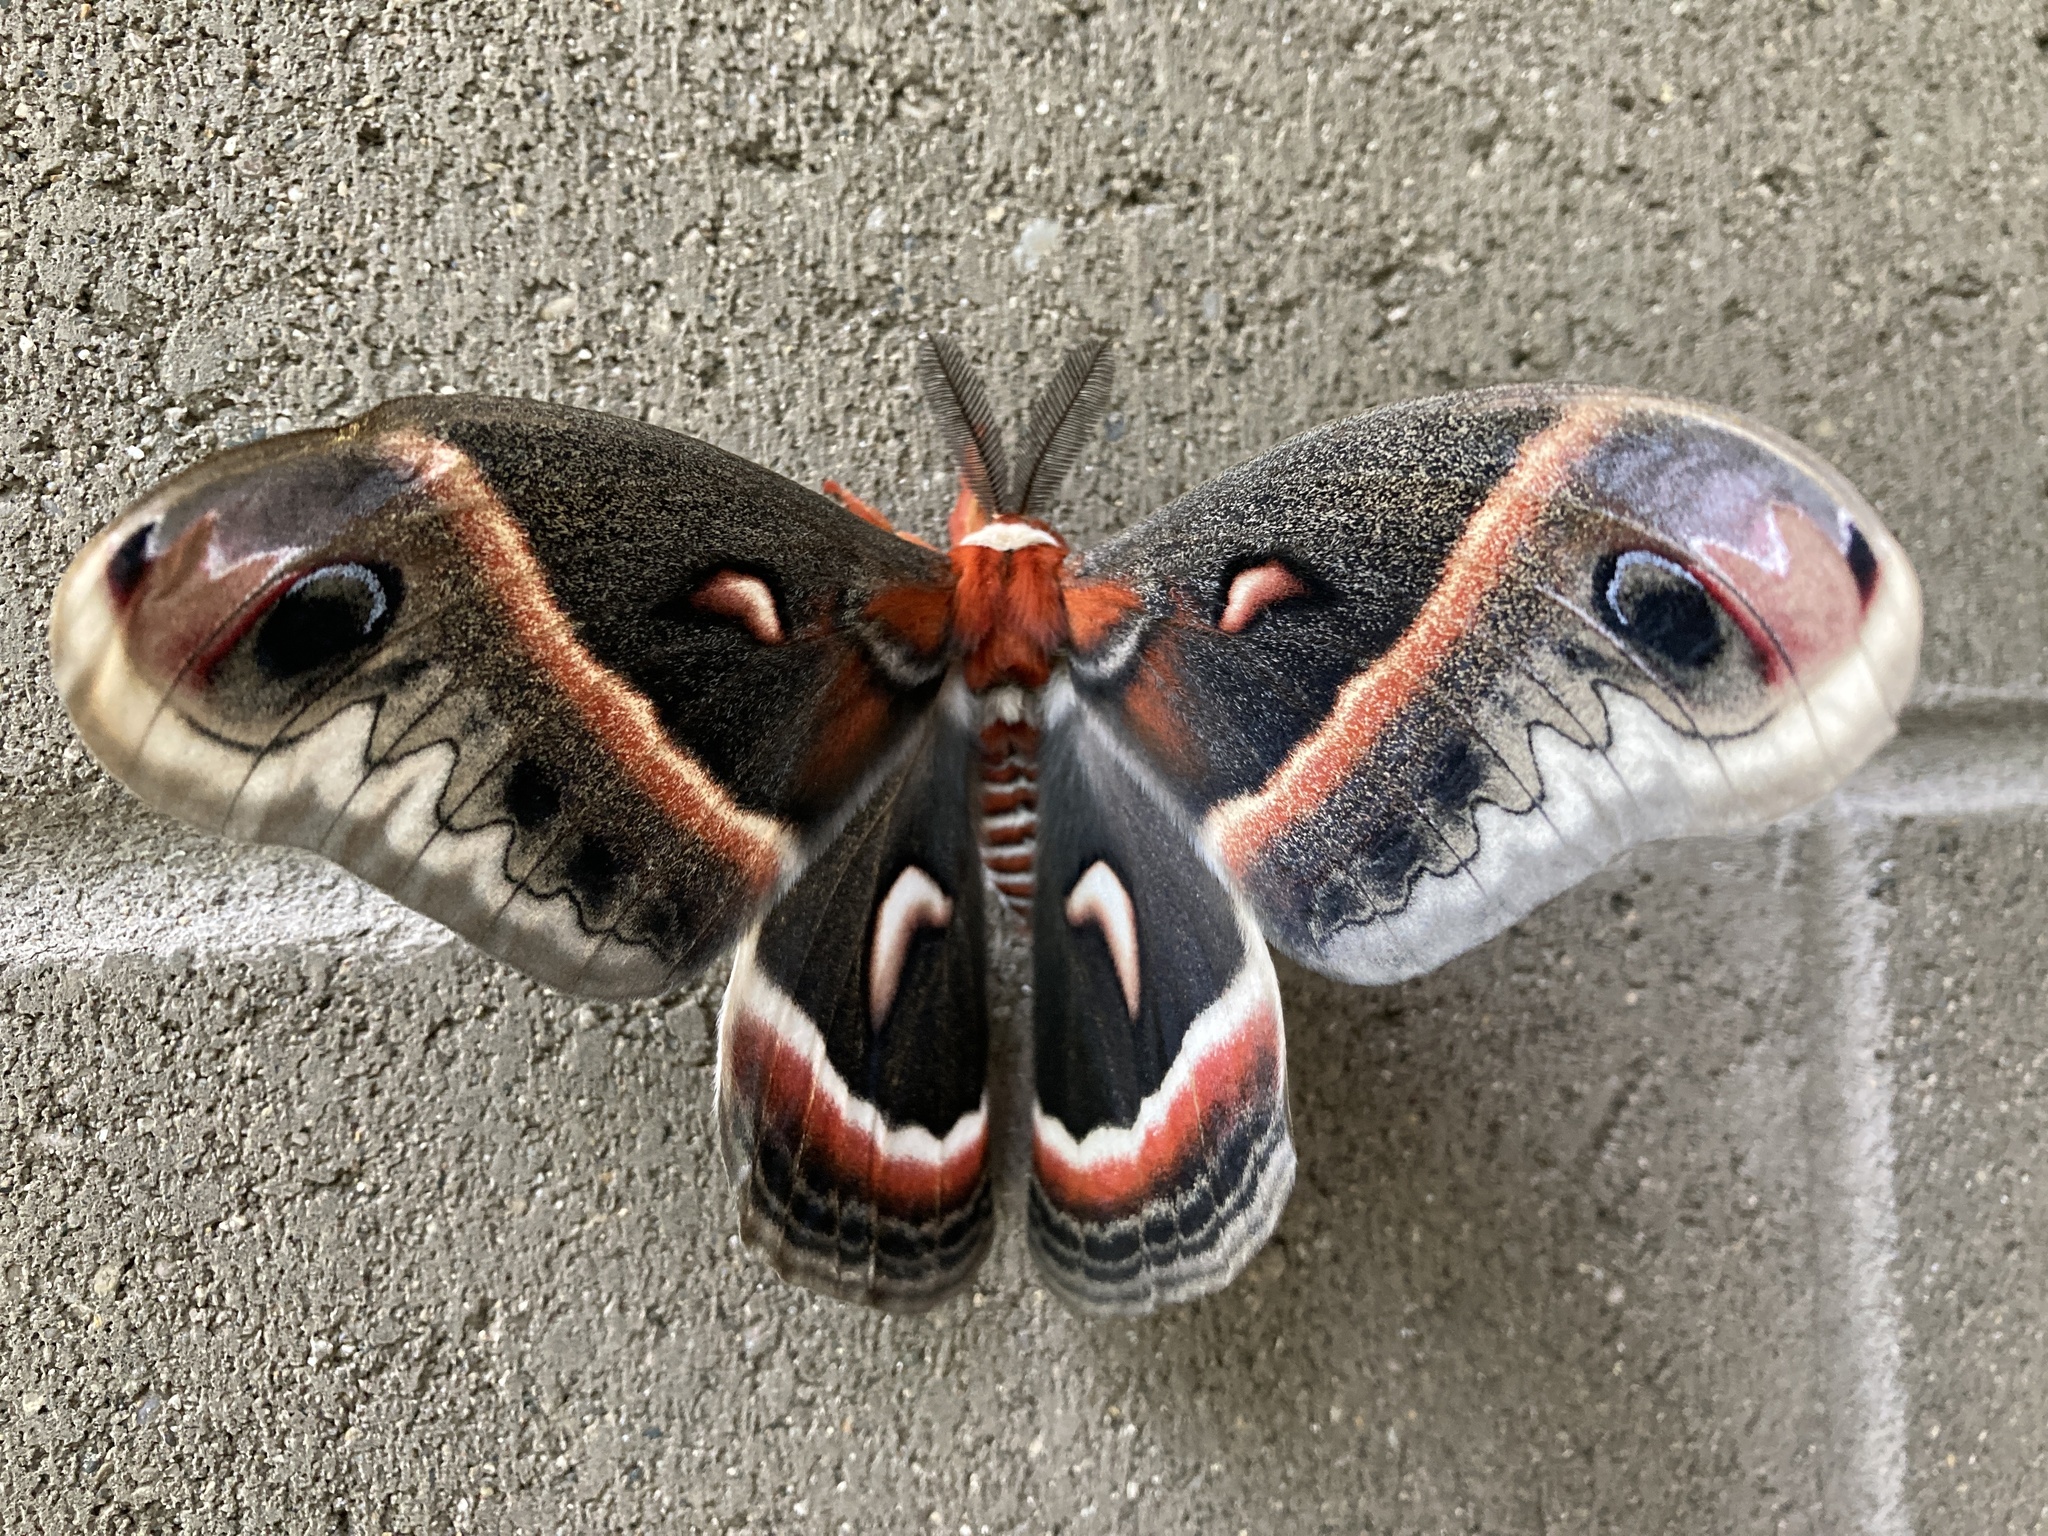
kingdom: Animalia
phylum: Arthropoda
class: Insecta
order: Lepidoptera
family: Saturniidae
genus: Hyalophora
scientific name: Hyalophora cecropia
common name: Cecropia silkmoth
